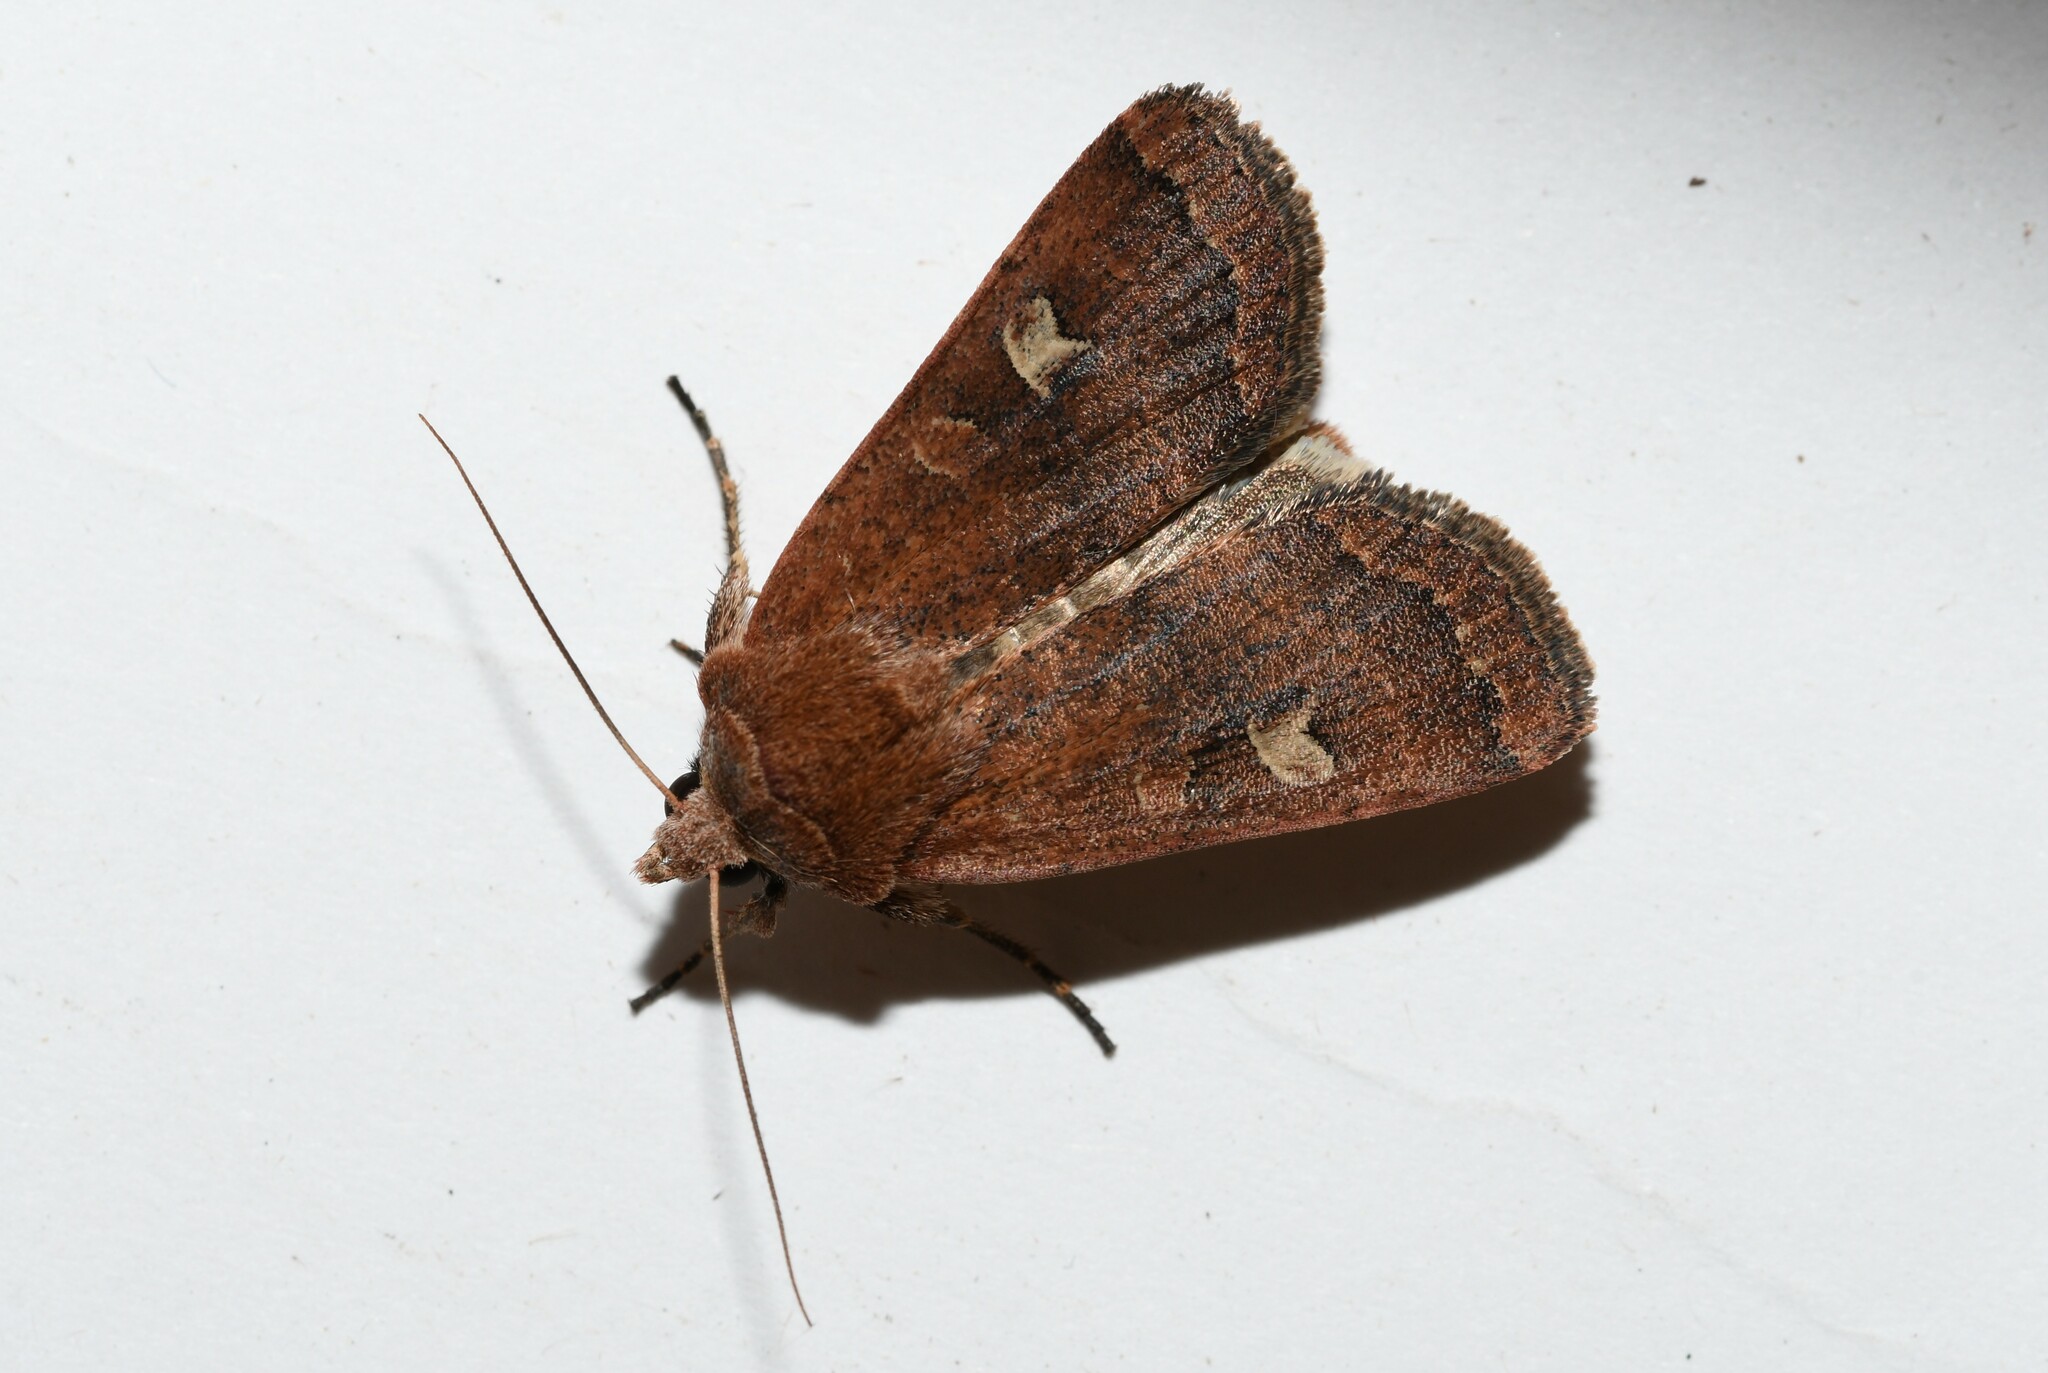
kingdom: Animalia
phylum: Arthropoda
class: Insecta
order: Lepidoptera
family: Noctuidae
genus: Xestia
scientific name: Xestia xanthographa
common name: Square-spot rustic
